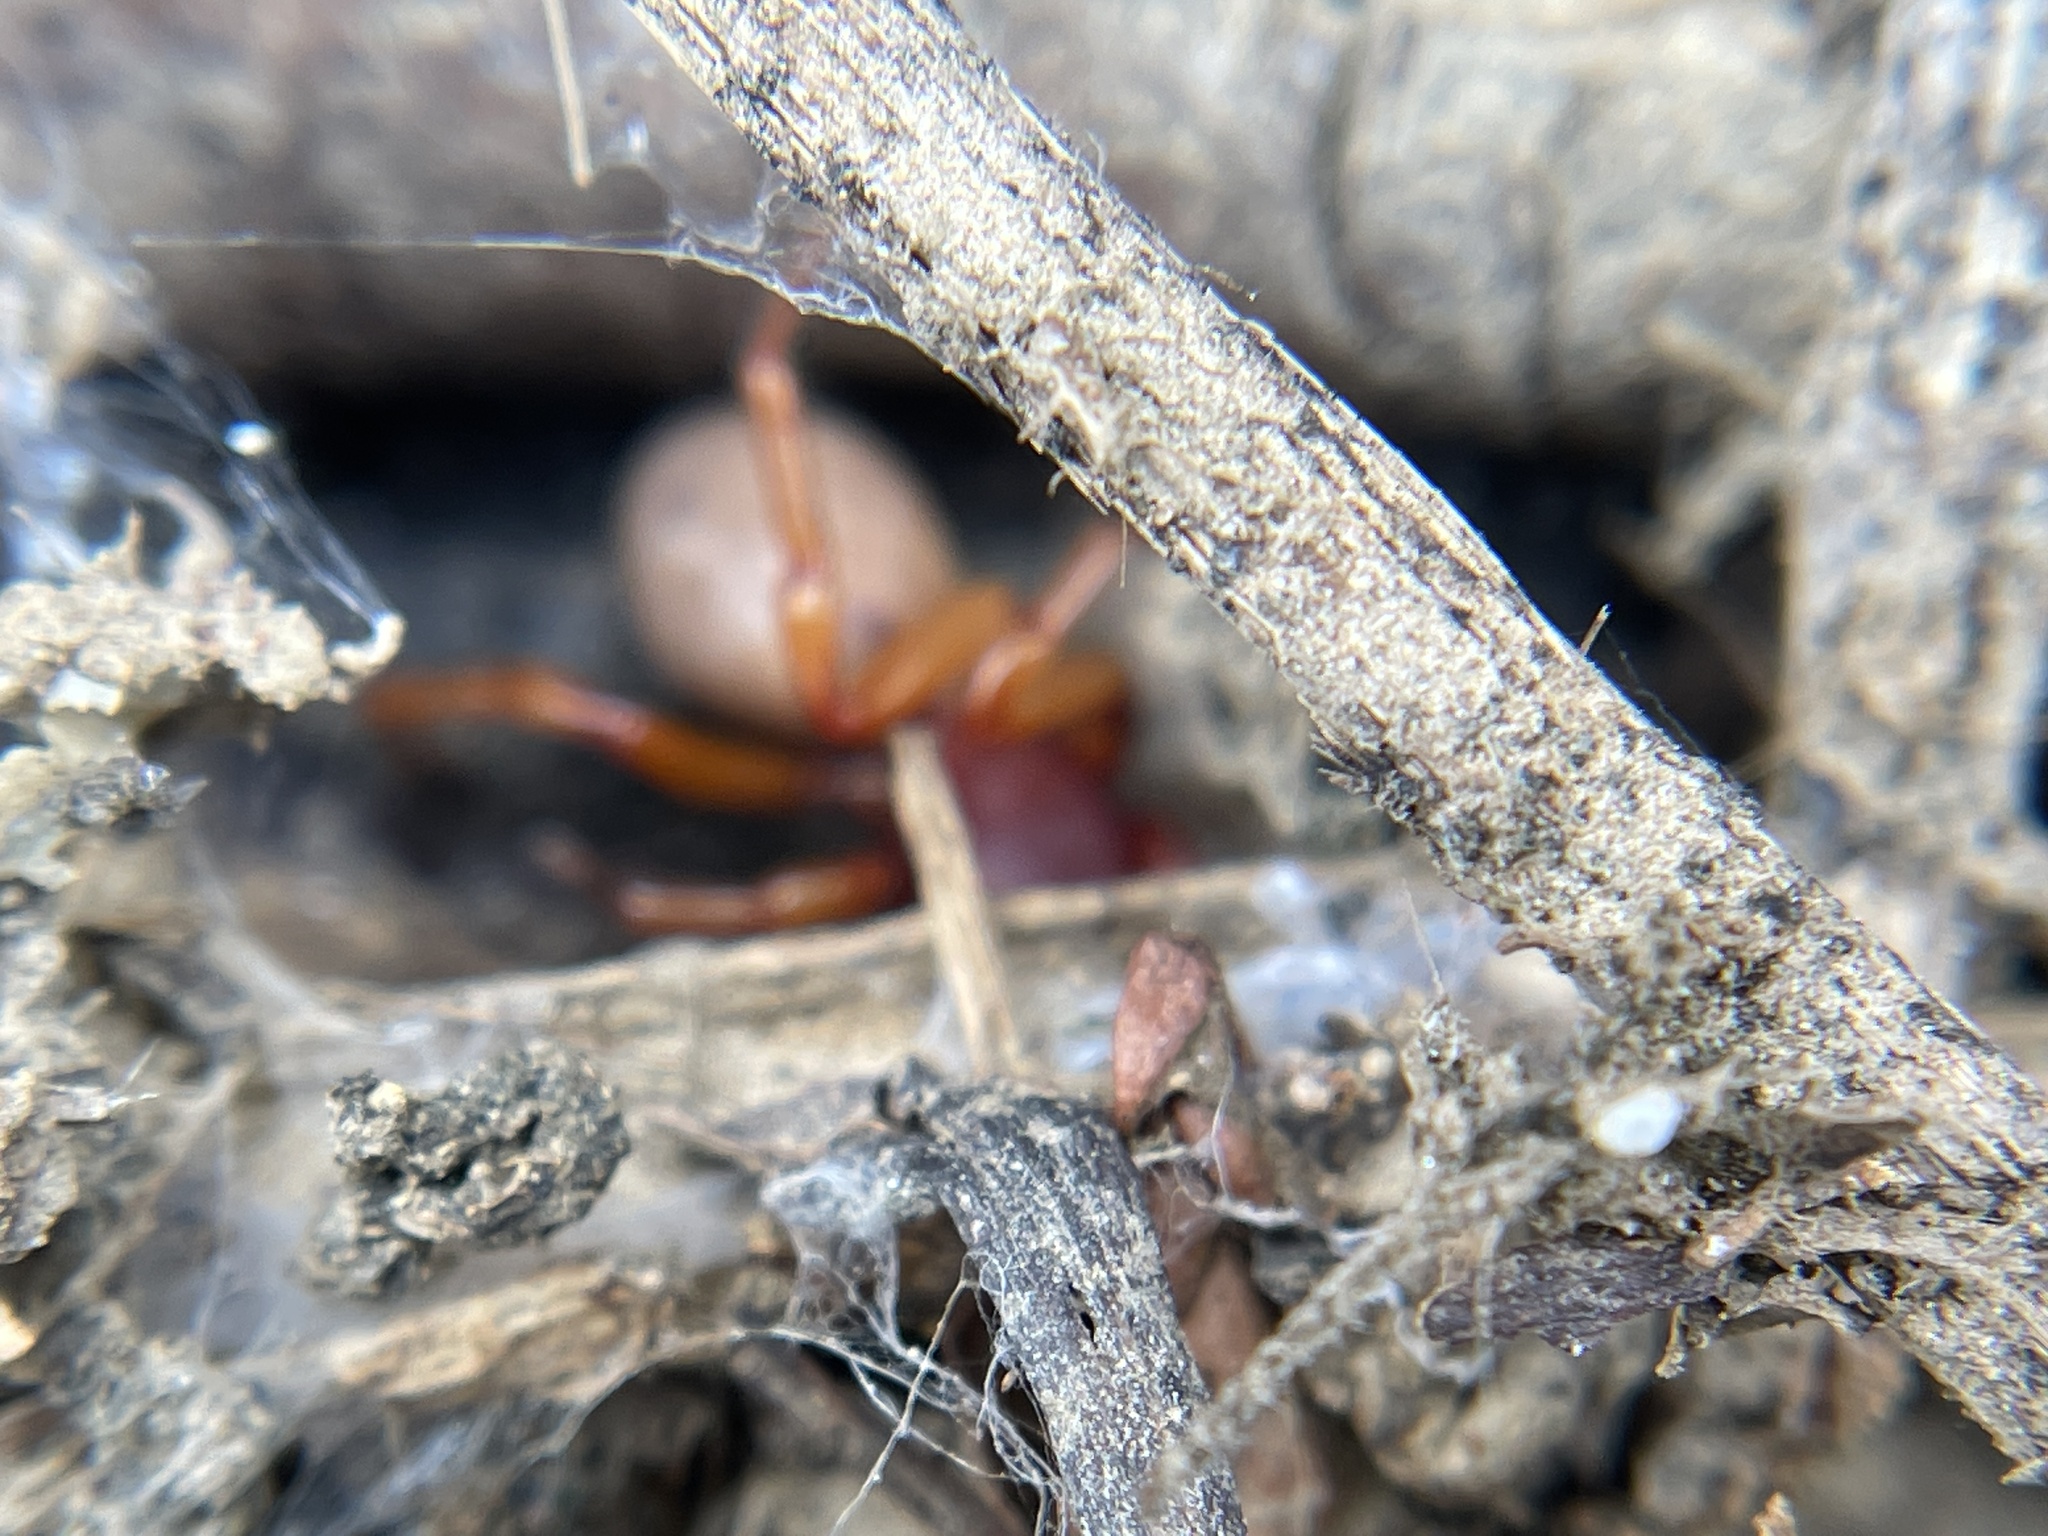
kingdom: Animalia
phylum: Arthropoda
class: Arachnida
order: Araneae
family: Dysderidae
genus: Dysdera
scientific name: Dysdera crocata
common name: Woodlouse spider
